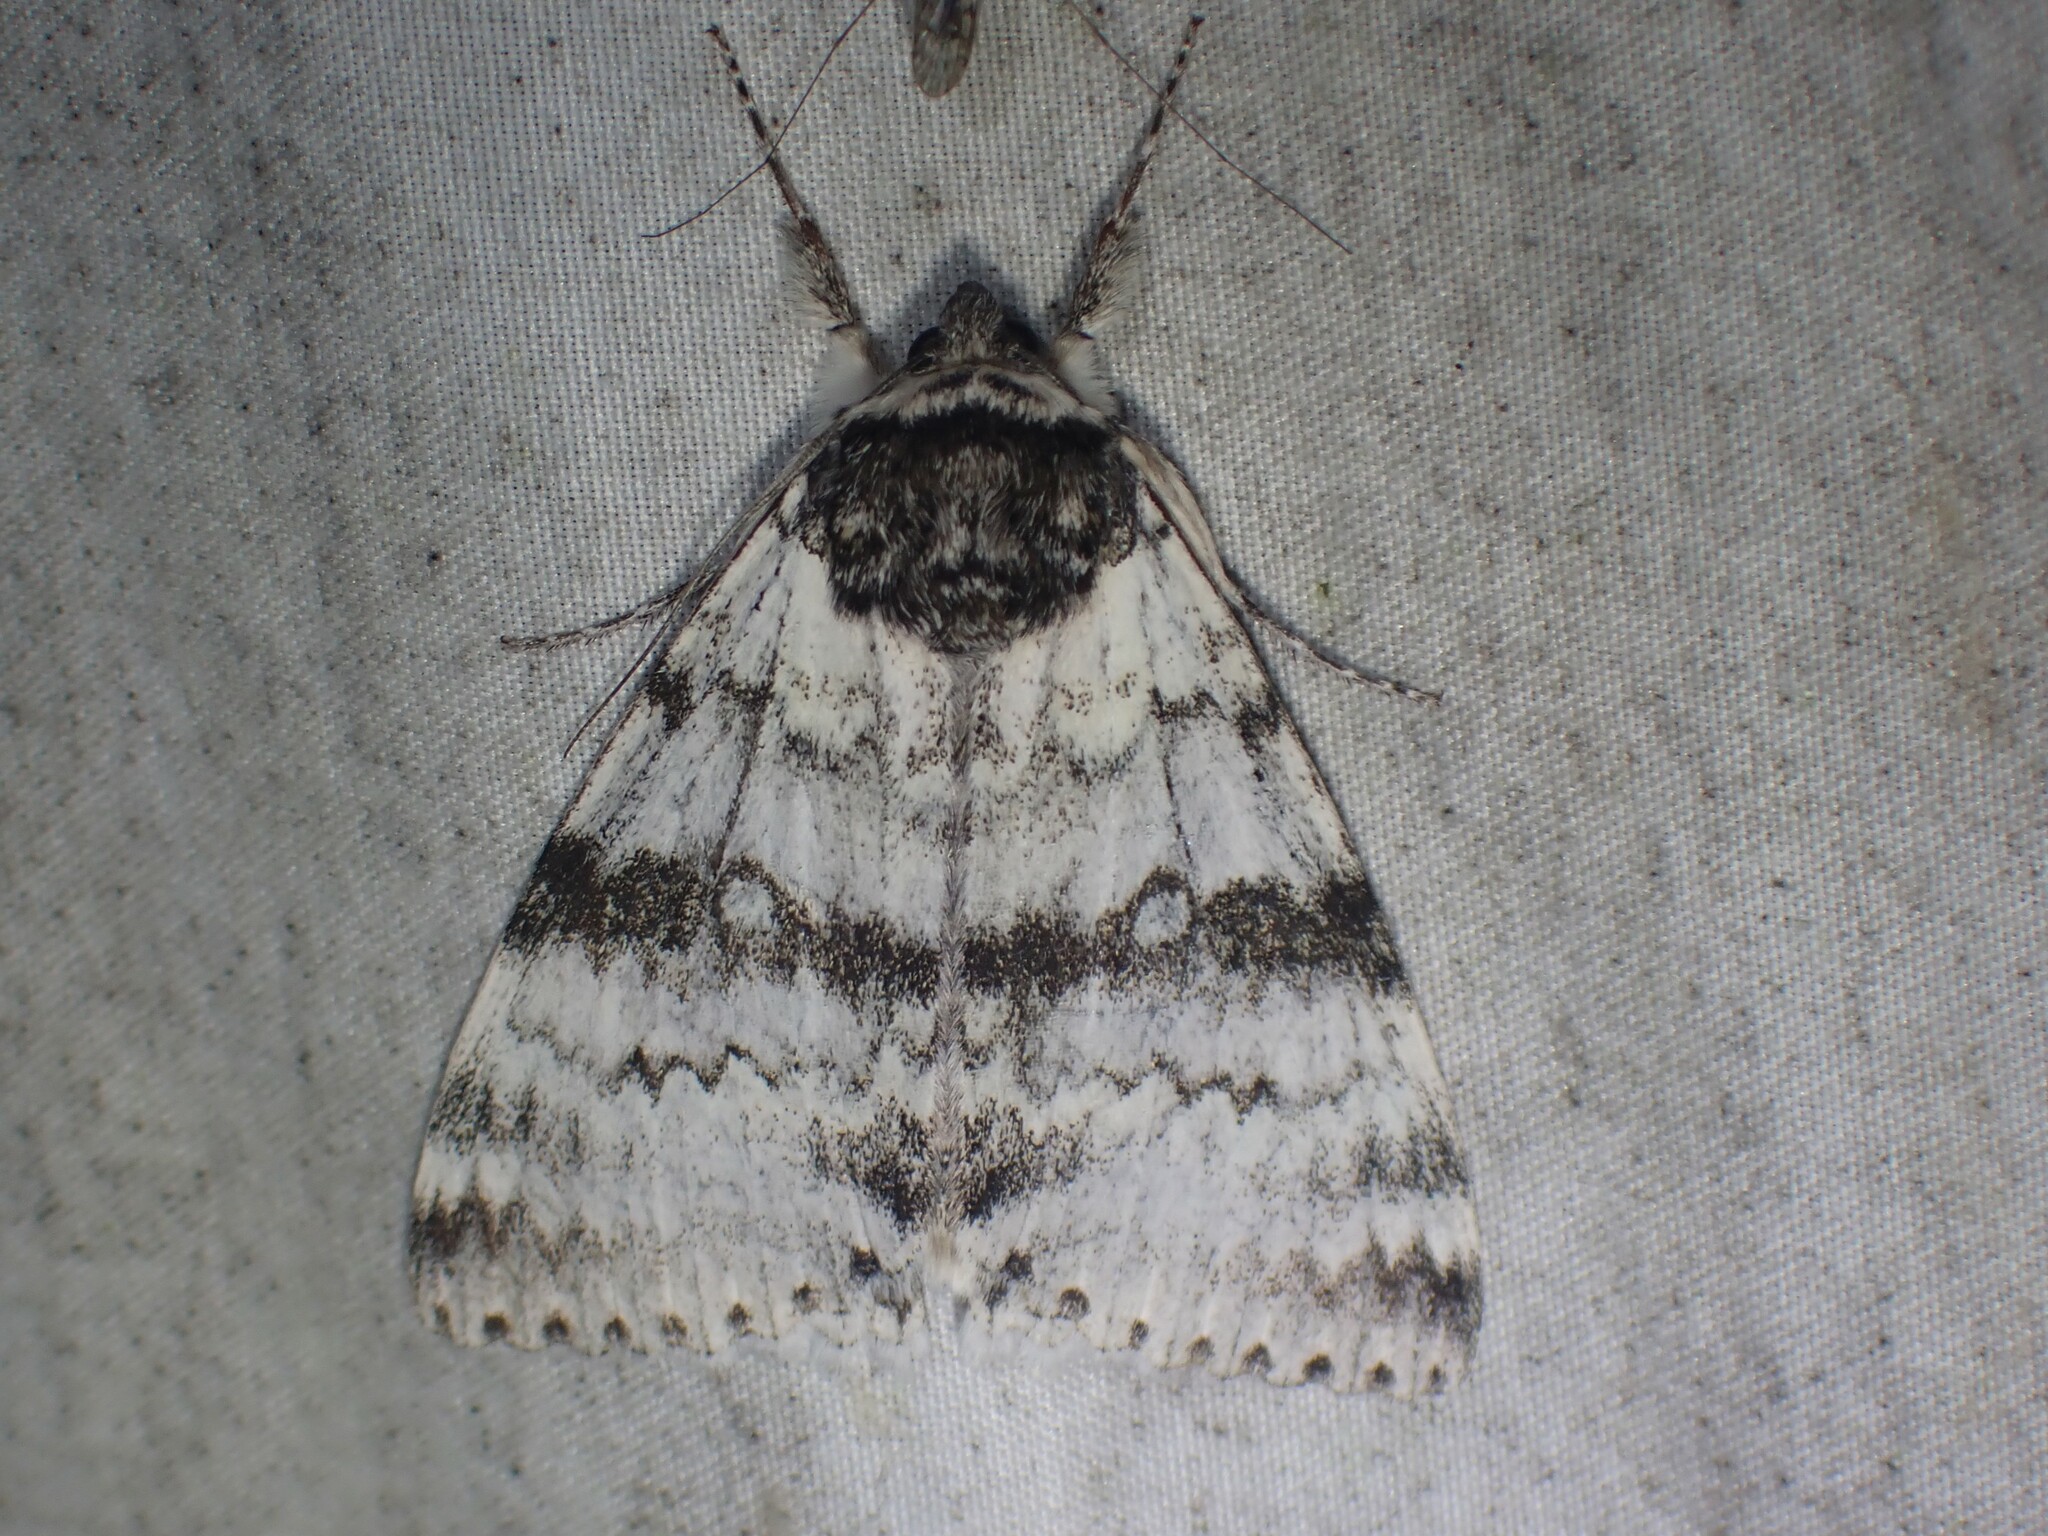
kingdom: Animalia
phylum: Arthropoda
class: Insecta
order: Lepidoptera
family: Erebidae
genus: Catocala
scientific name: Catocala relicta
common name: White underwing
